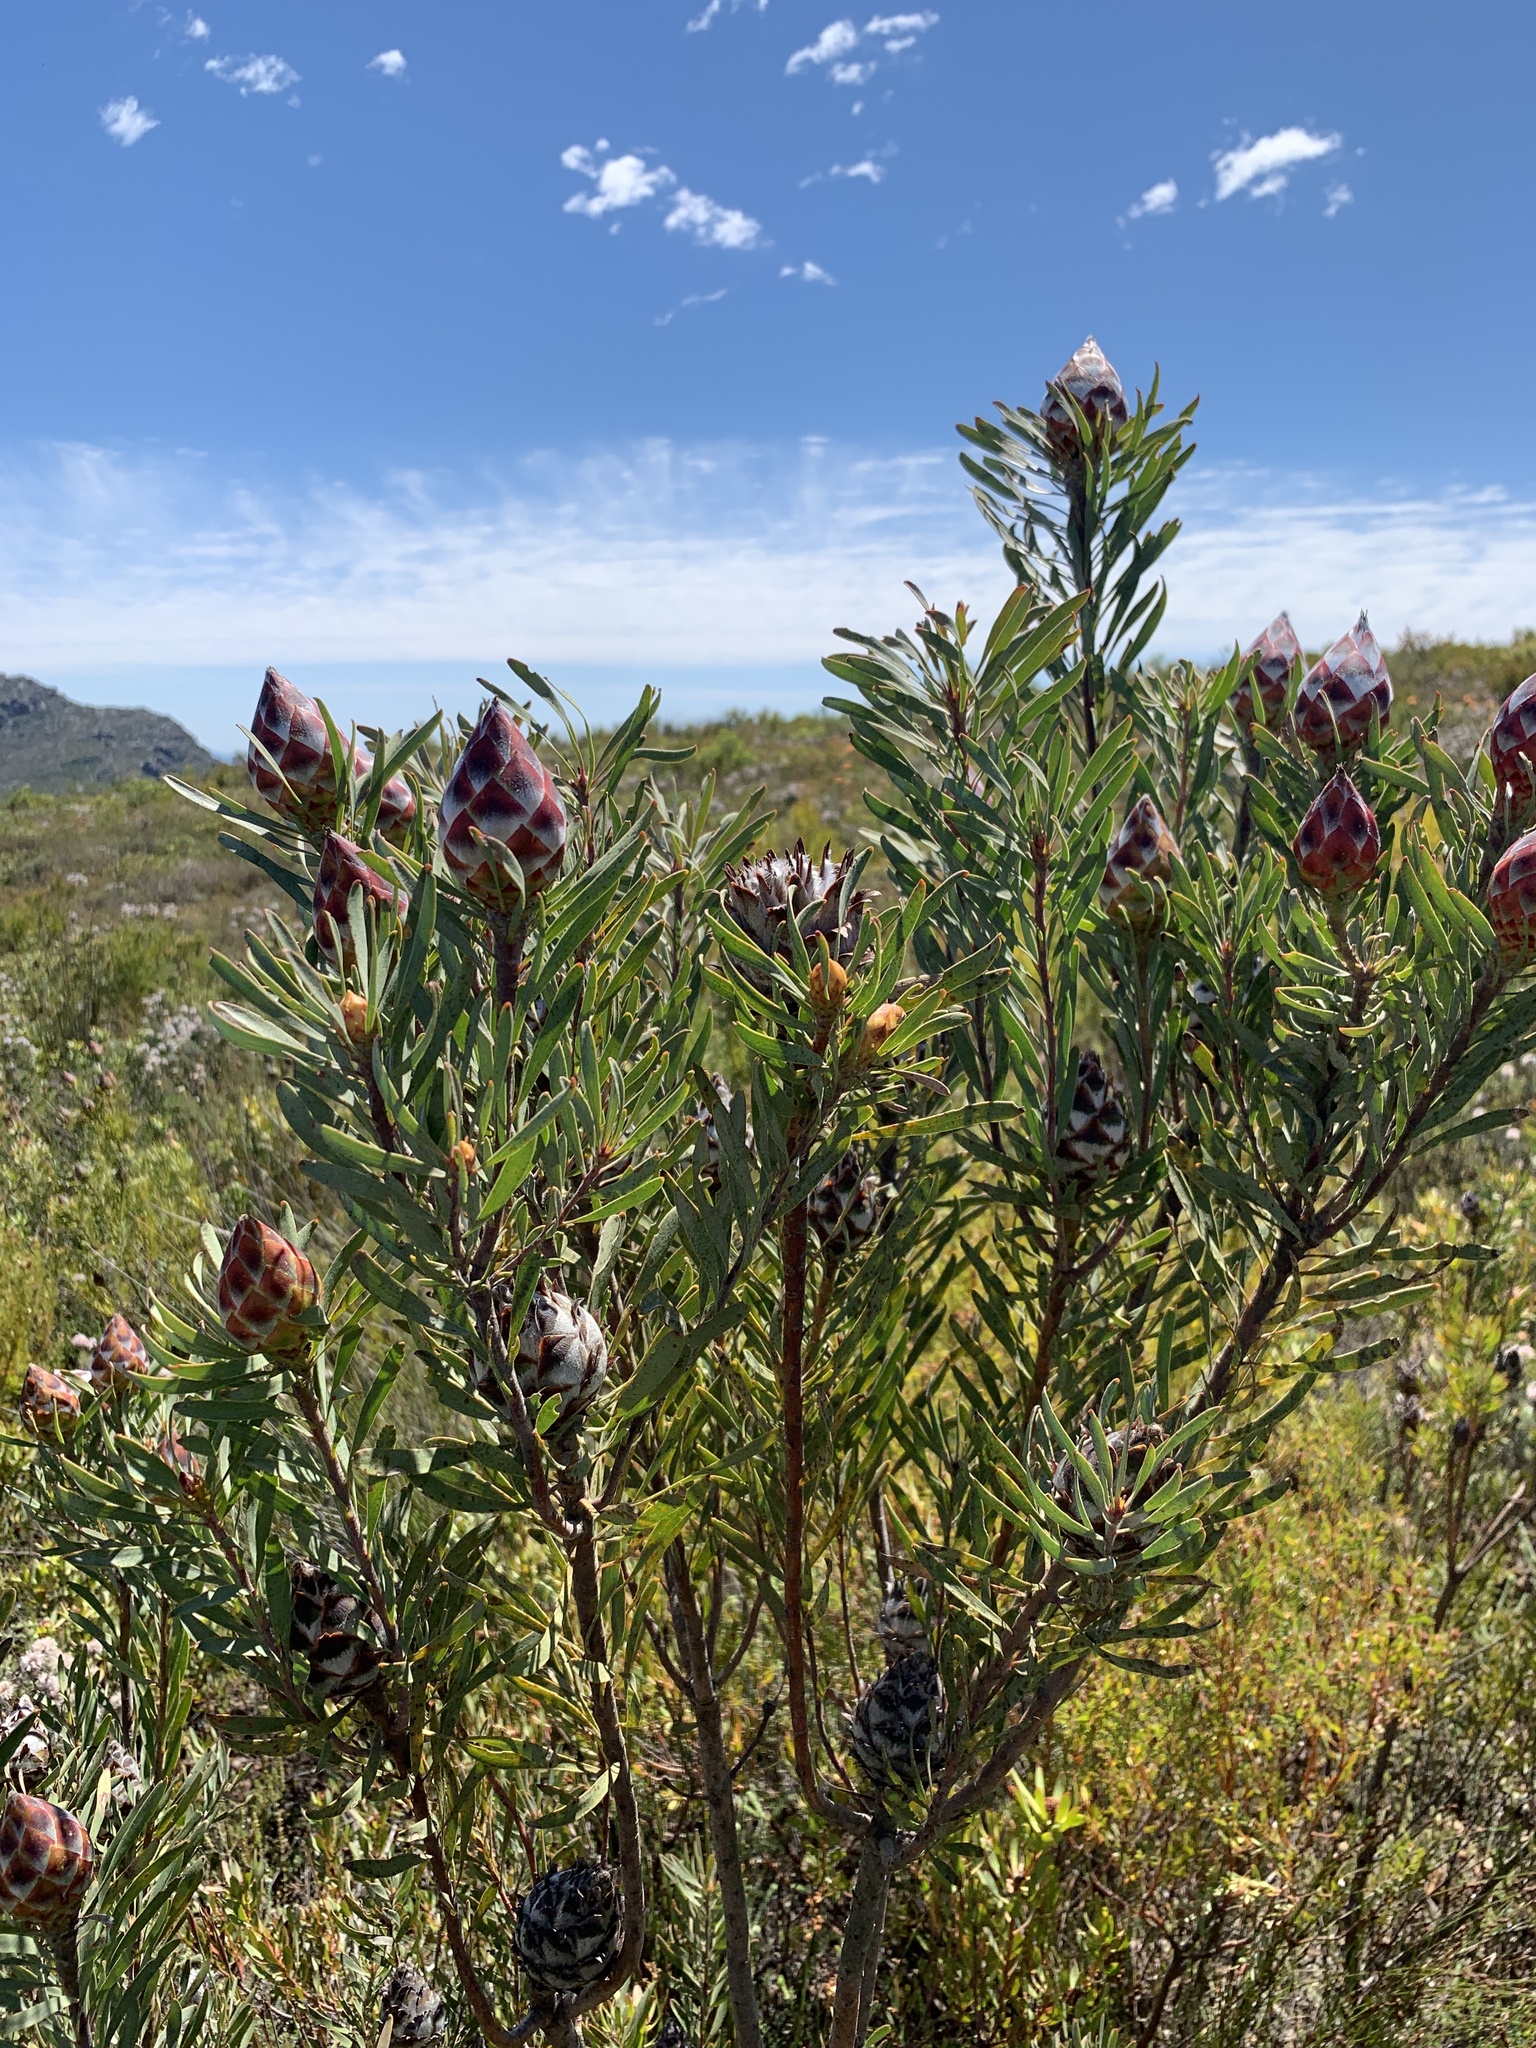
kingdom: Plantae
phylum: Tracheophyta
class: Magnoliopsida
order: Proteales
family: Proteaceae
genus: Leucadendron
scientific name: Leucadendron rubrum
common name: Spinning top
